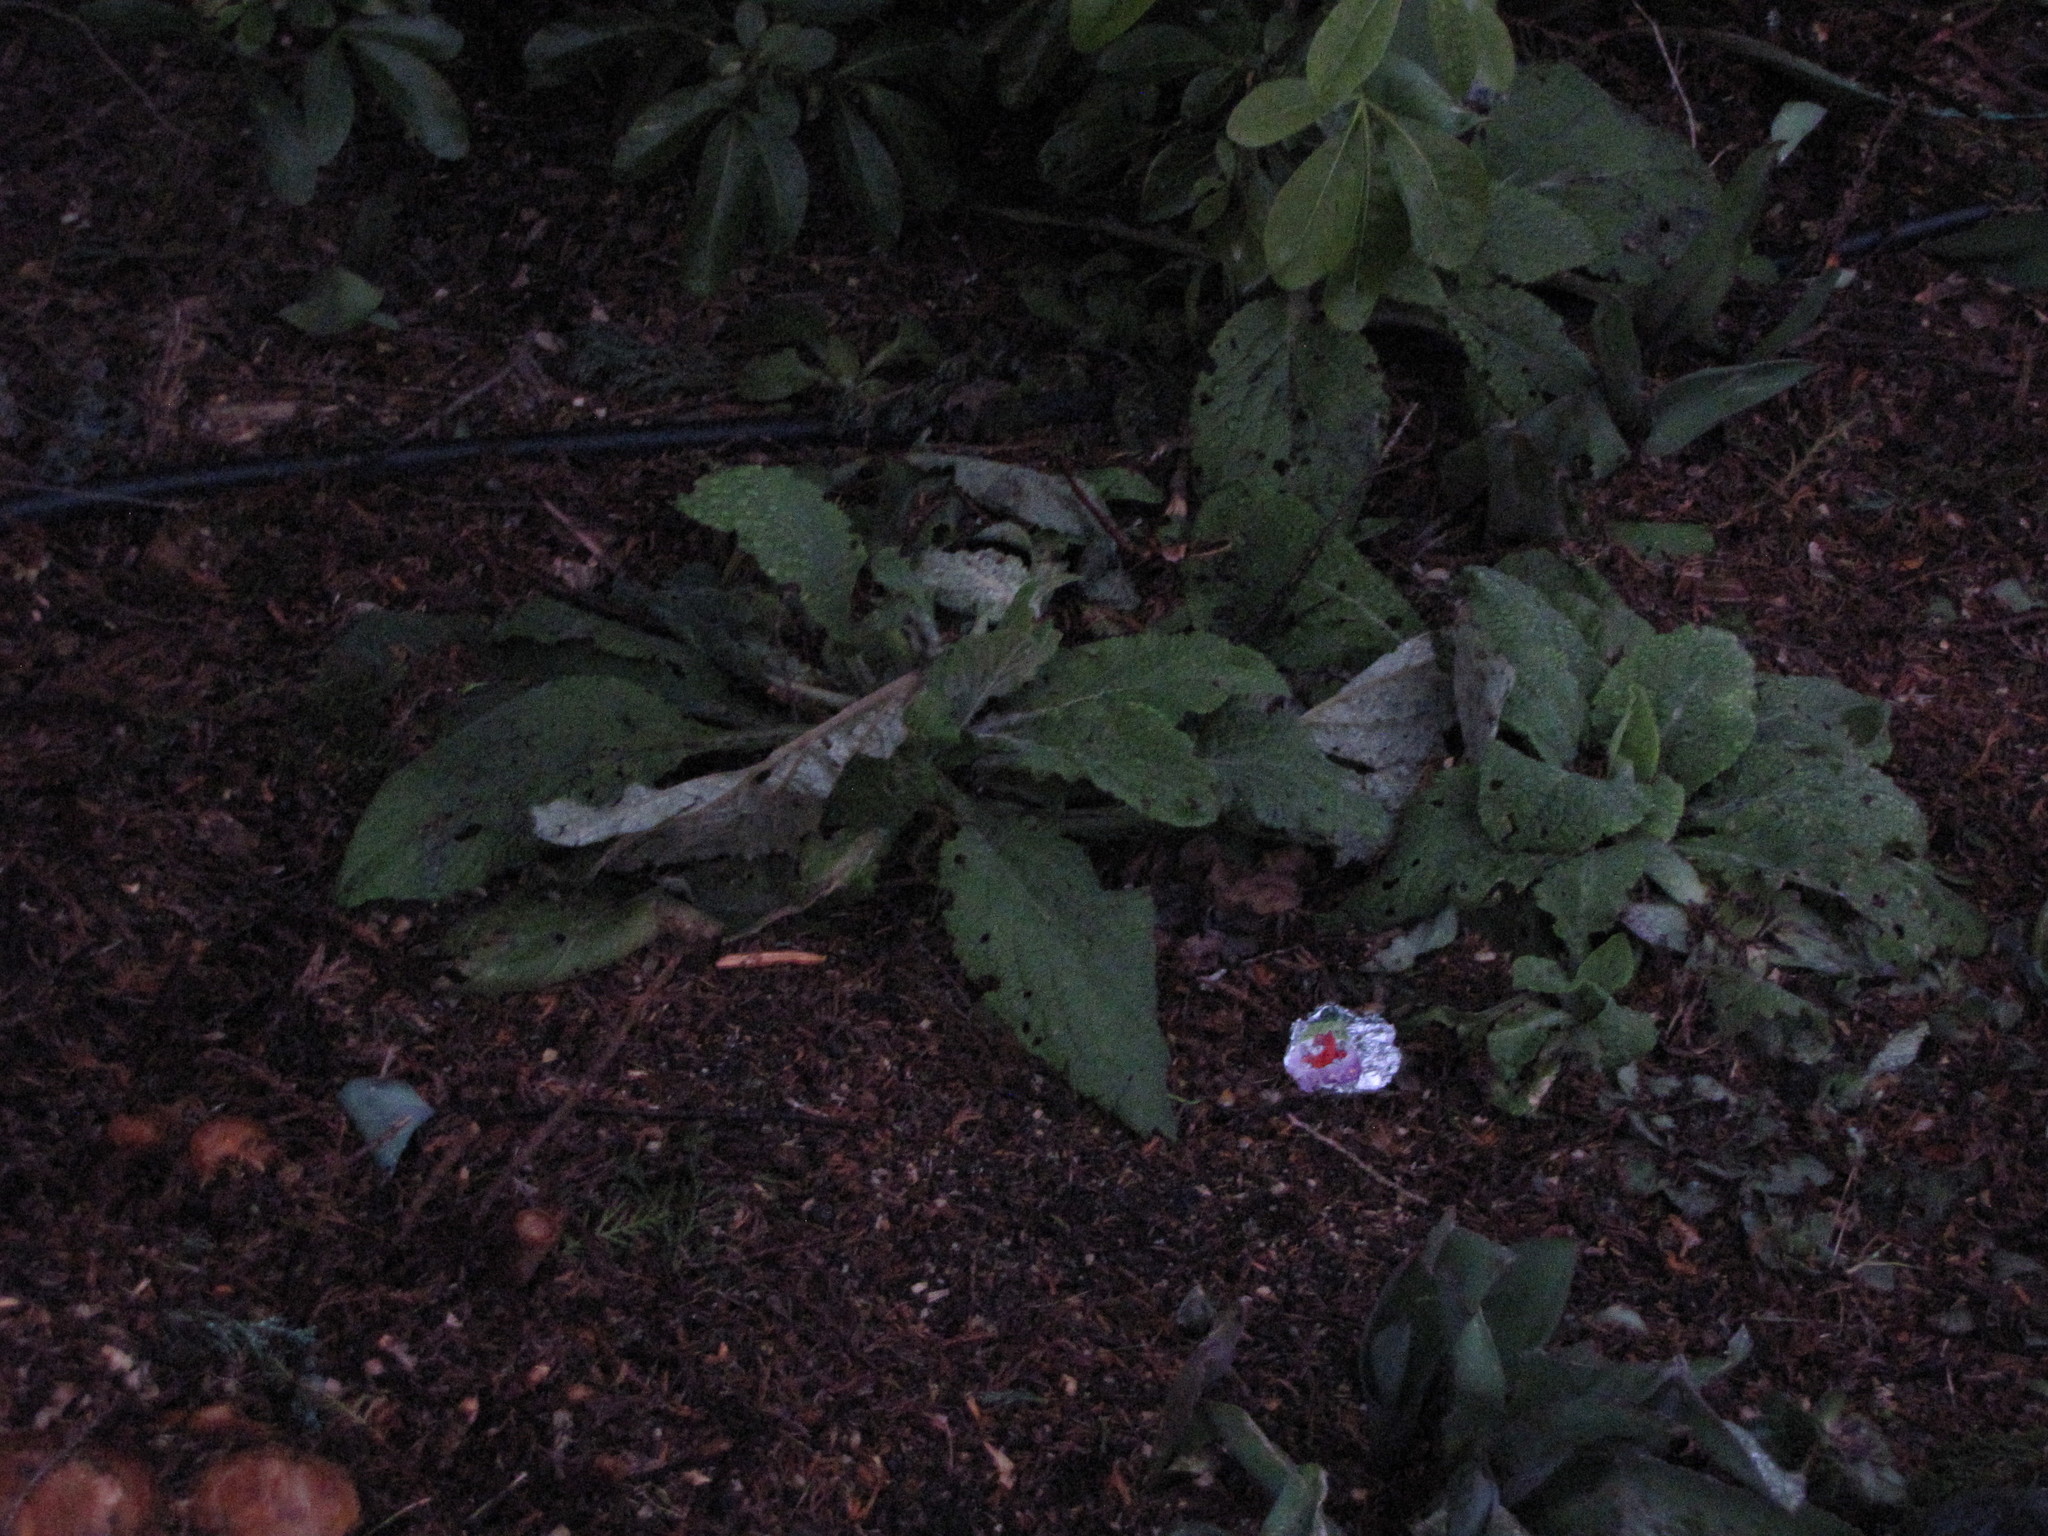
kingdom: Plantae
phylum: Tracheophyta
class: Magnoliopsida
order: Lamiales
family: Plantaginaceae
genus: Digitalis
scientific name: Digitalis purpurea
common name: Foxglove
